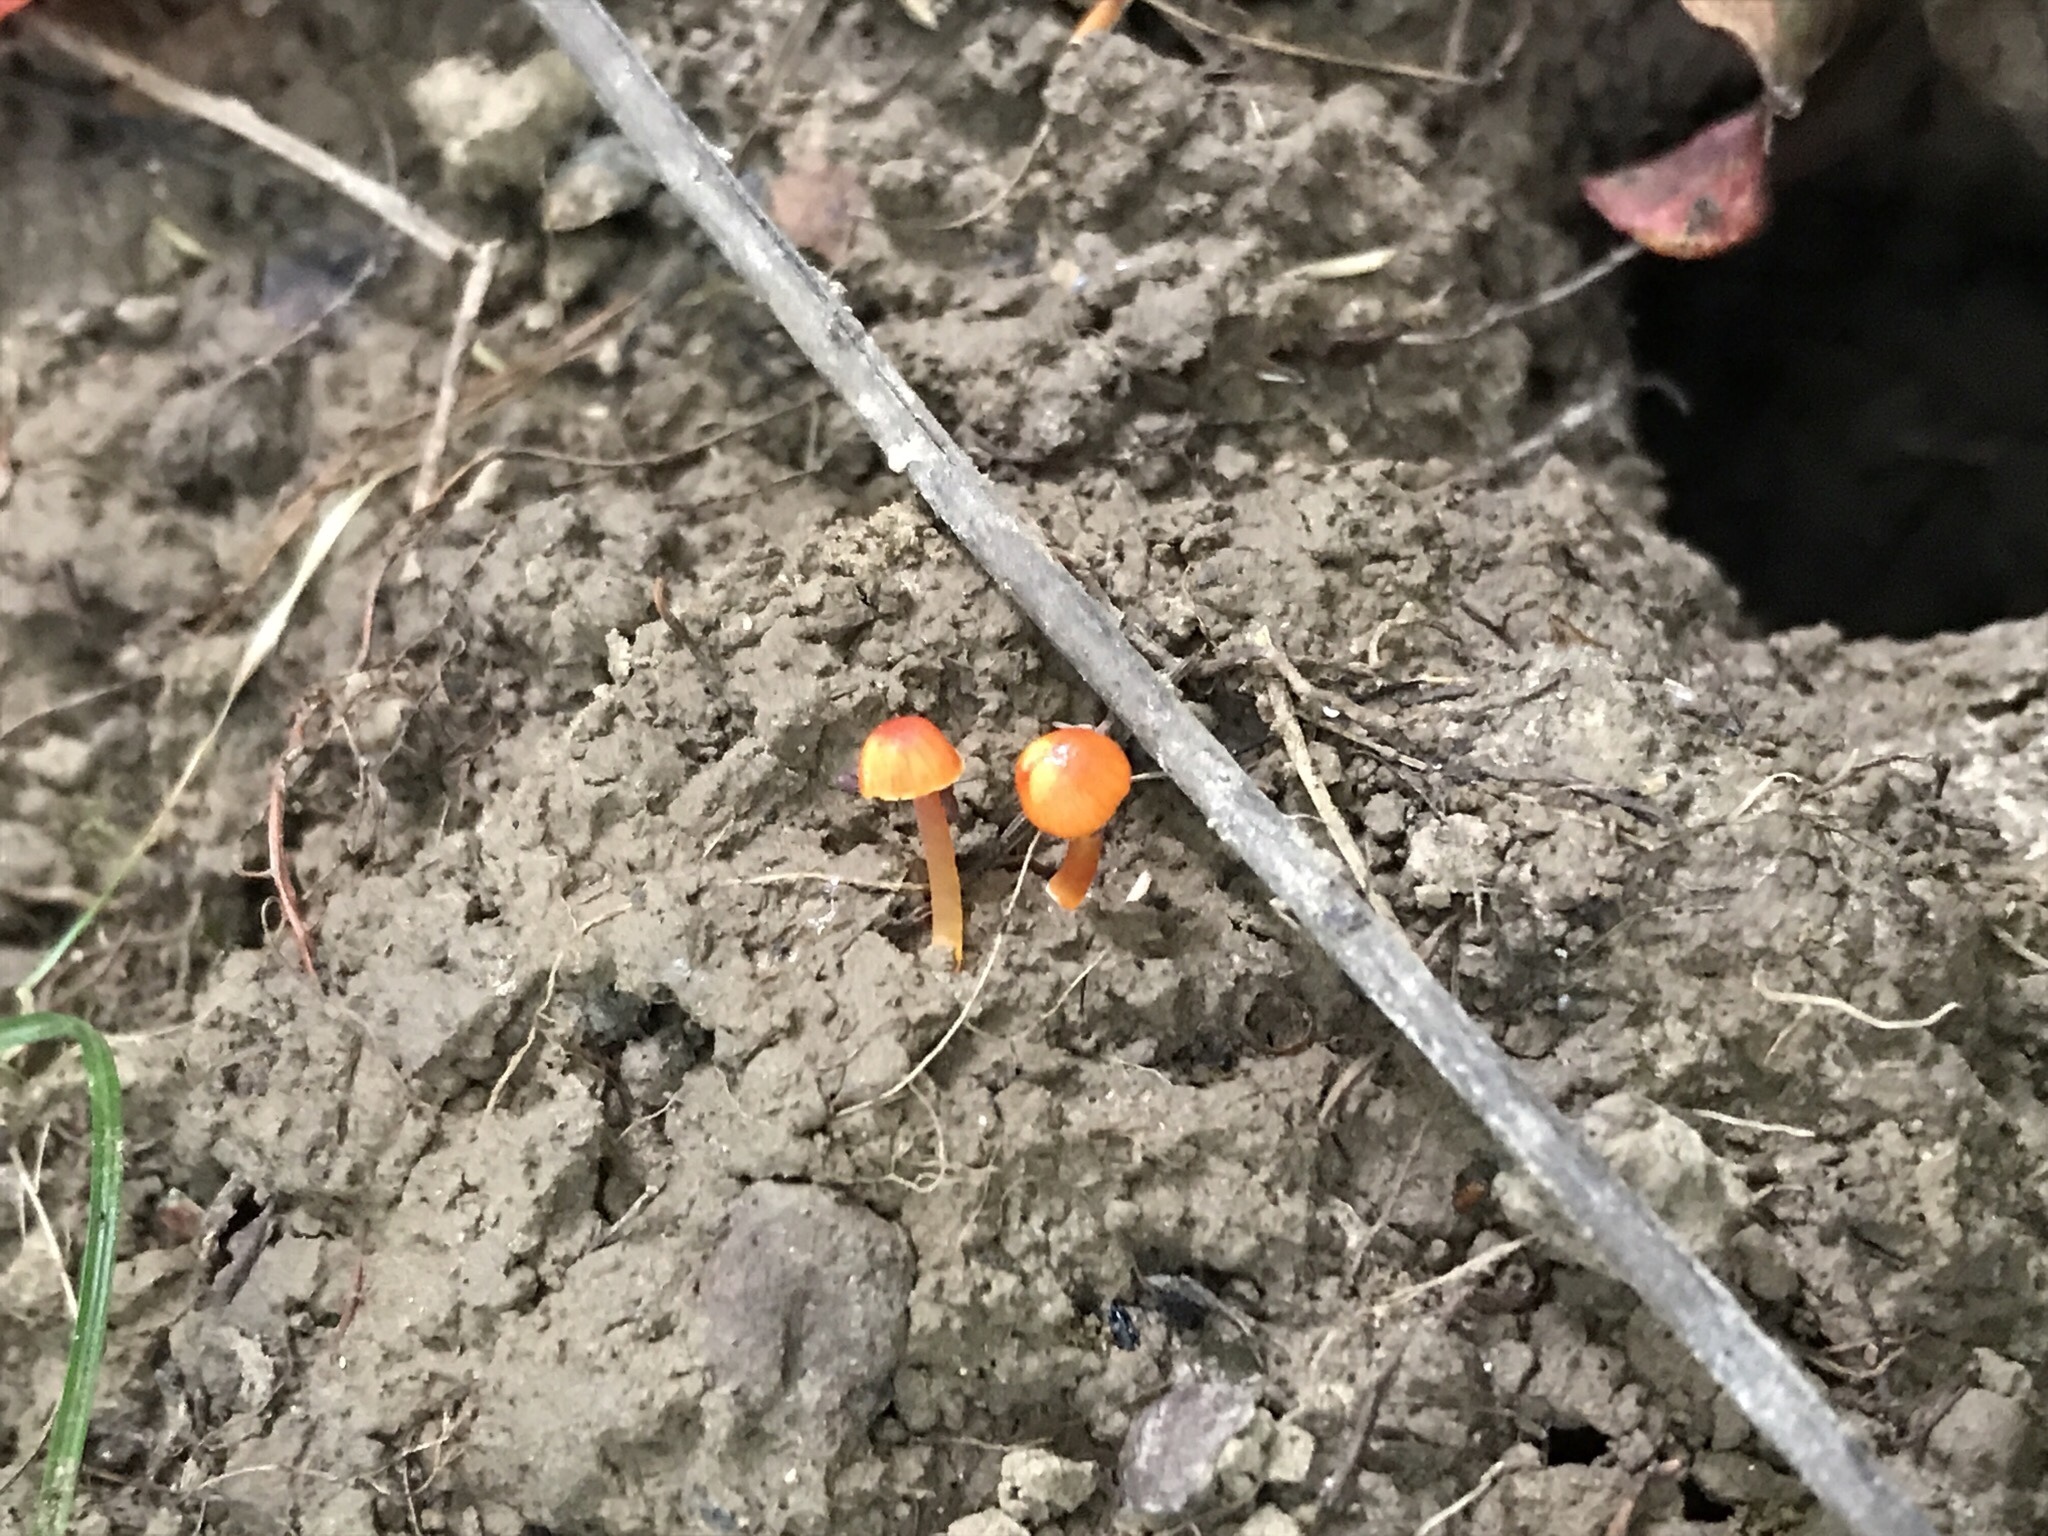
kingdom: Fungi
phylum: Basidiomycota
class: Agaricomycetes
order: Agaricales
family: Hygrophoraceae
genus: Hygrocybe
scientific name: Hygrocybe glutinipes
